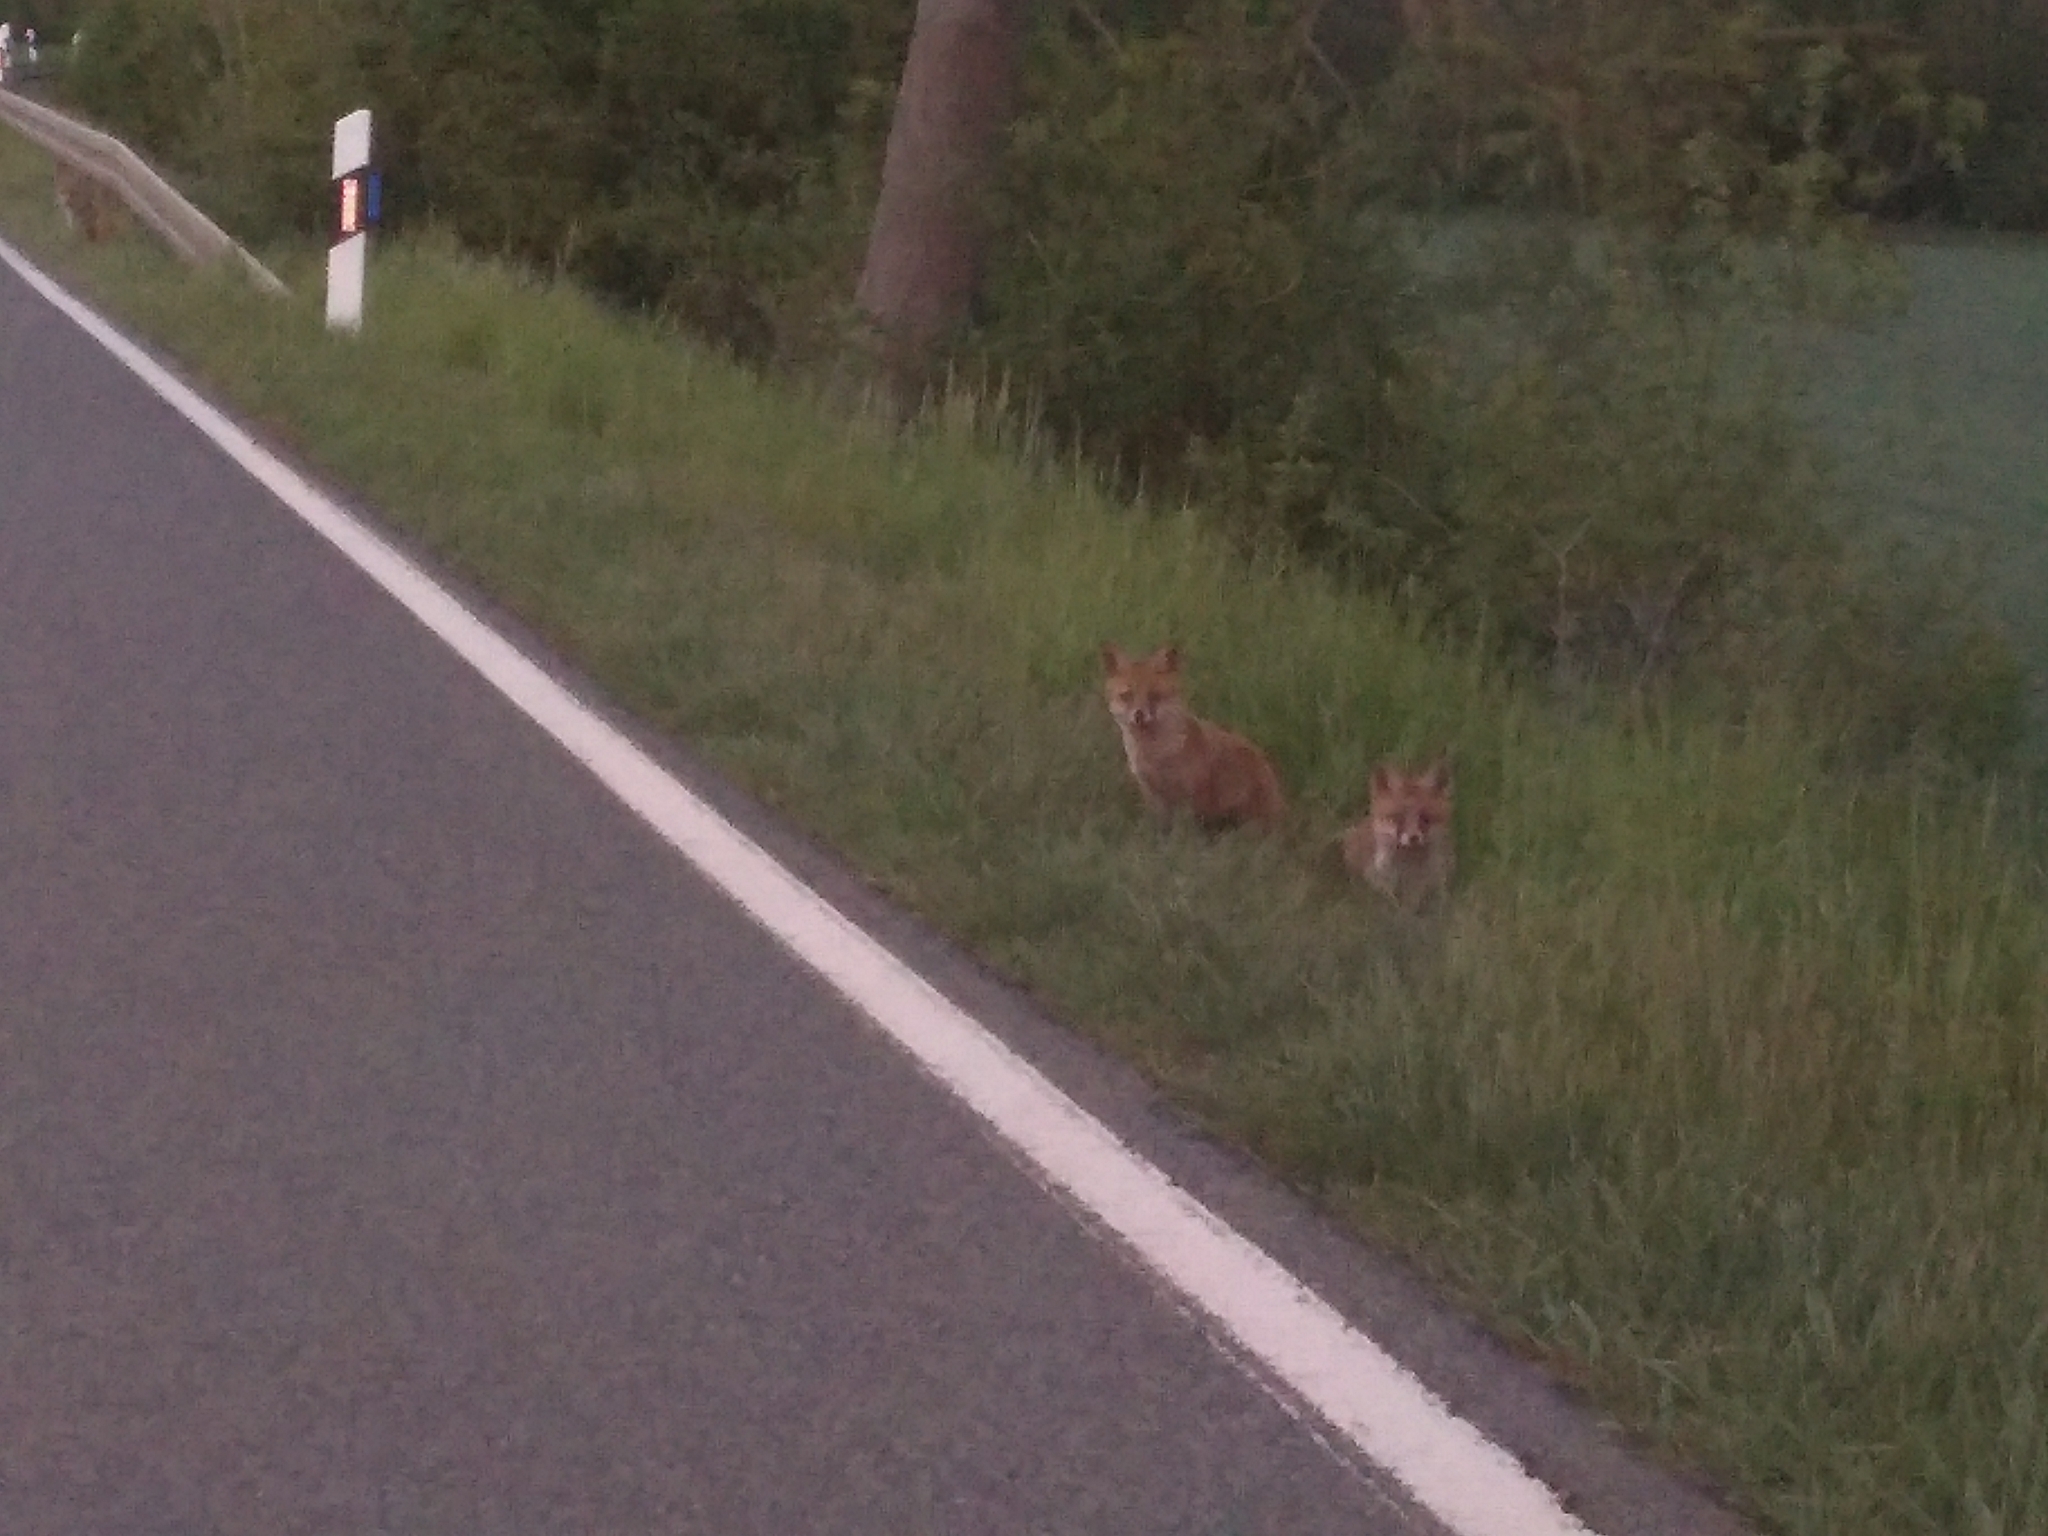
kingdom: Animalia
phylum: Chordata
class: Mammalia
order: Carnivora
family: Canidae
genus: Vulpes
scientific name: Vulpes vulpes
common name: Red fox
